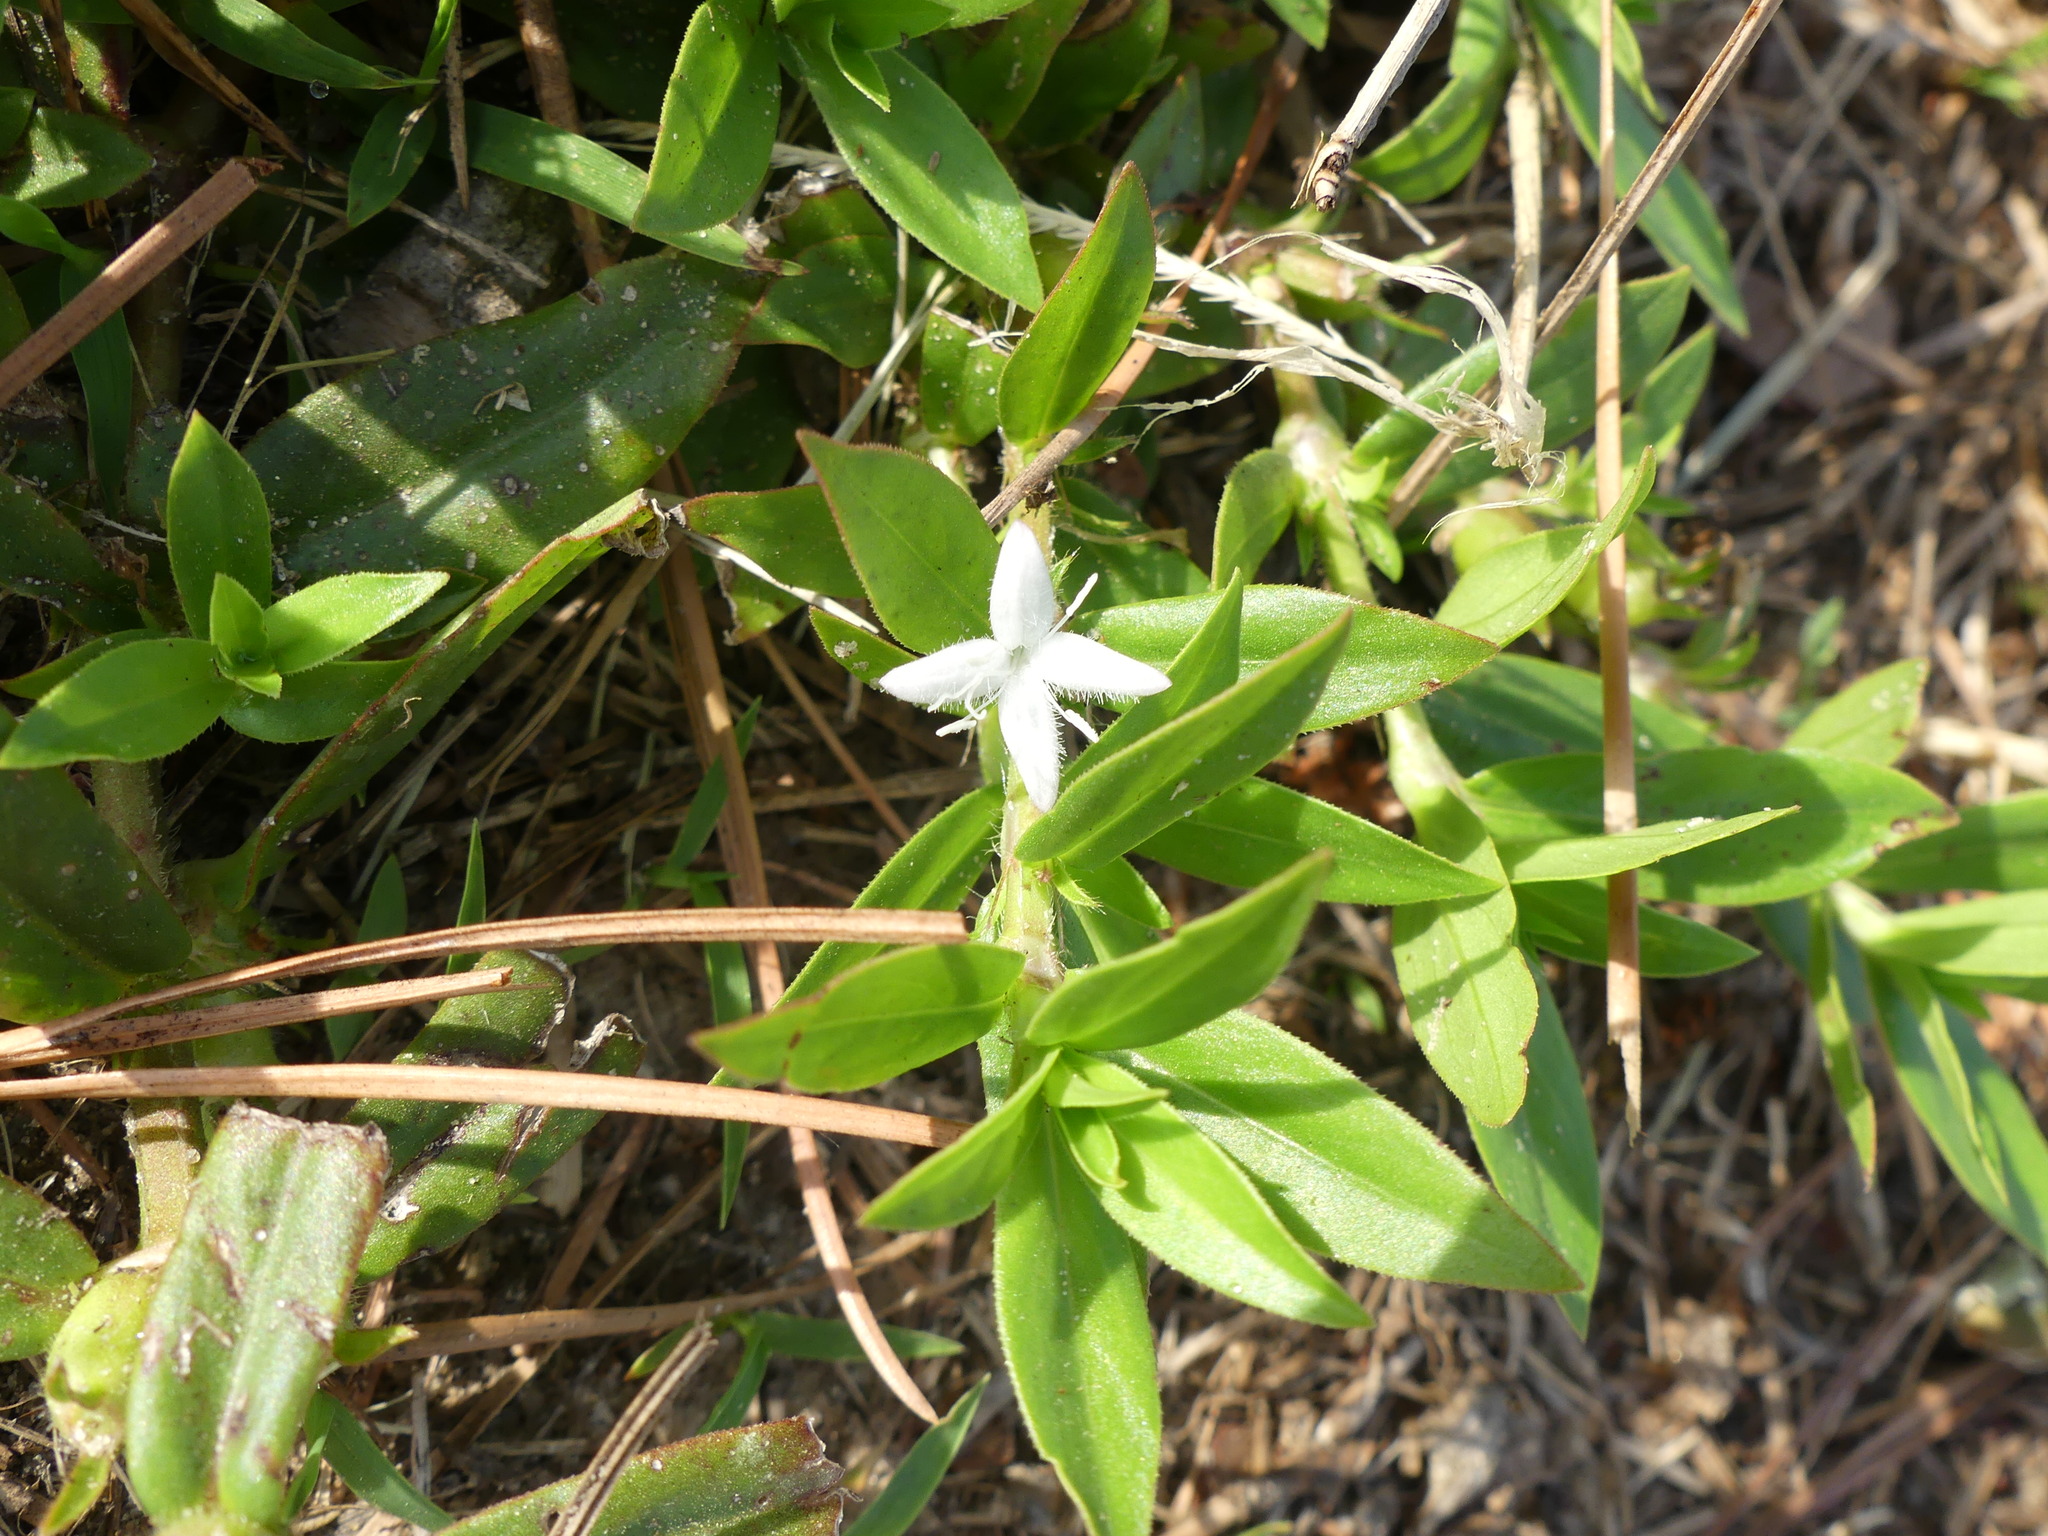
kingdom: Plantae
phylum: Tracheophyta
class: Magnoliopsida
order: Gentianales
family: Rubiaceae
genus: Diodia
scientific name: Diodia virginiana
